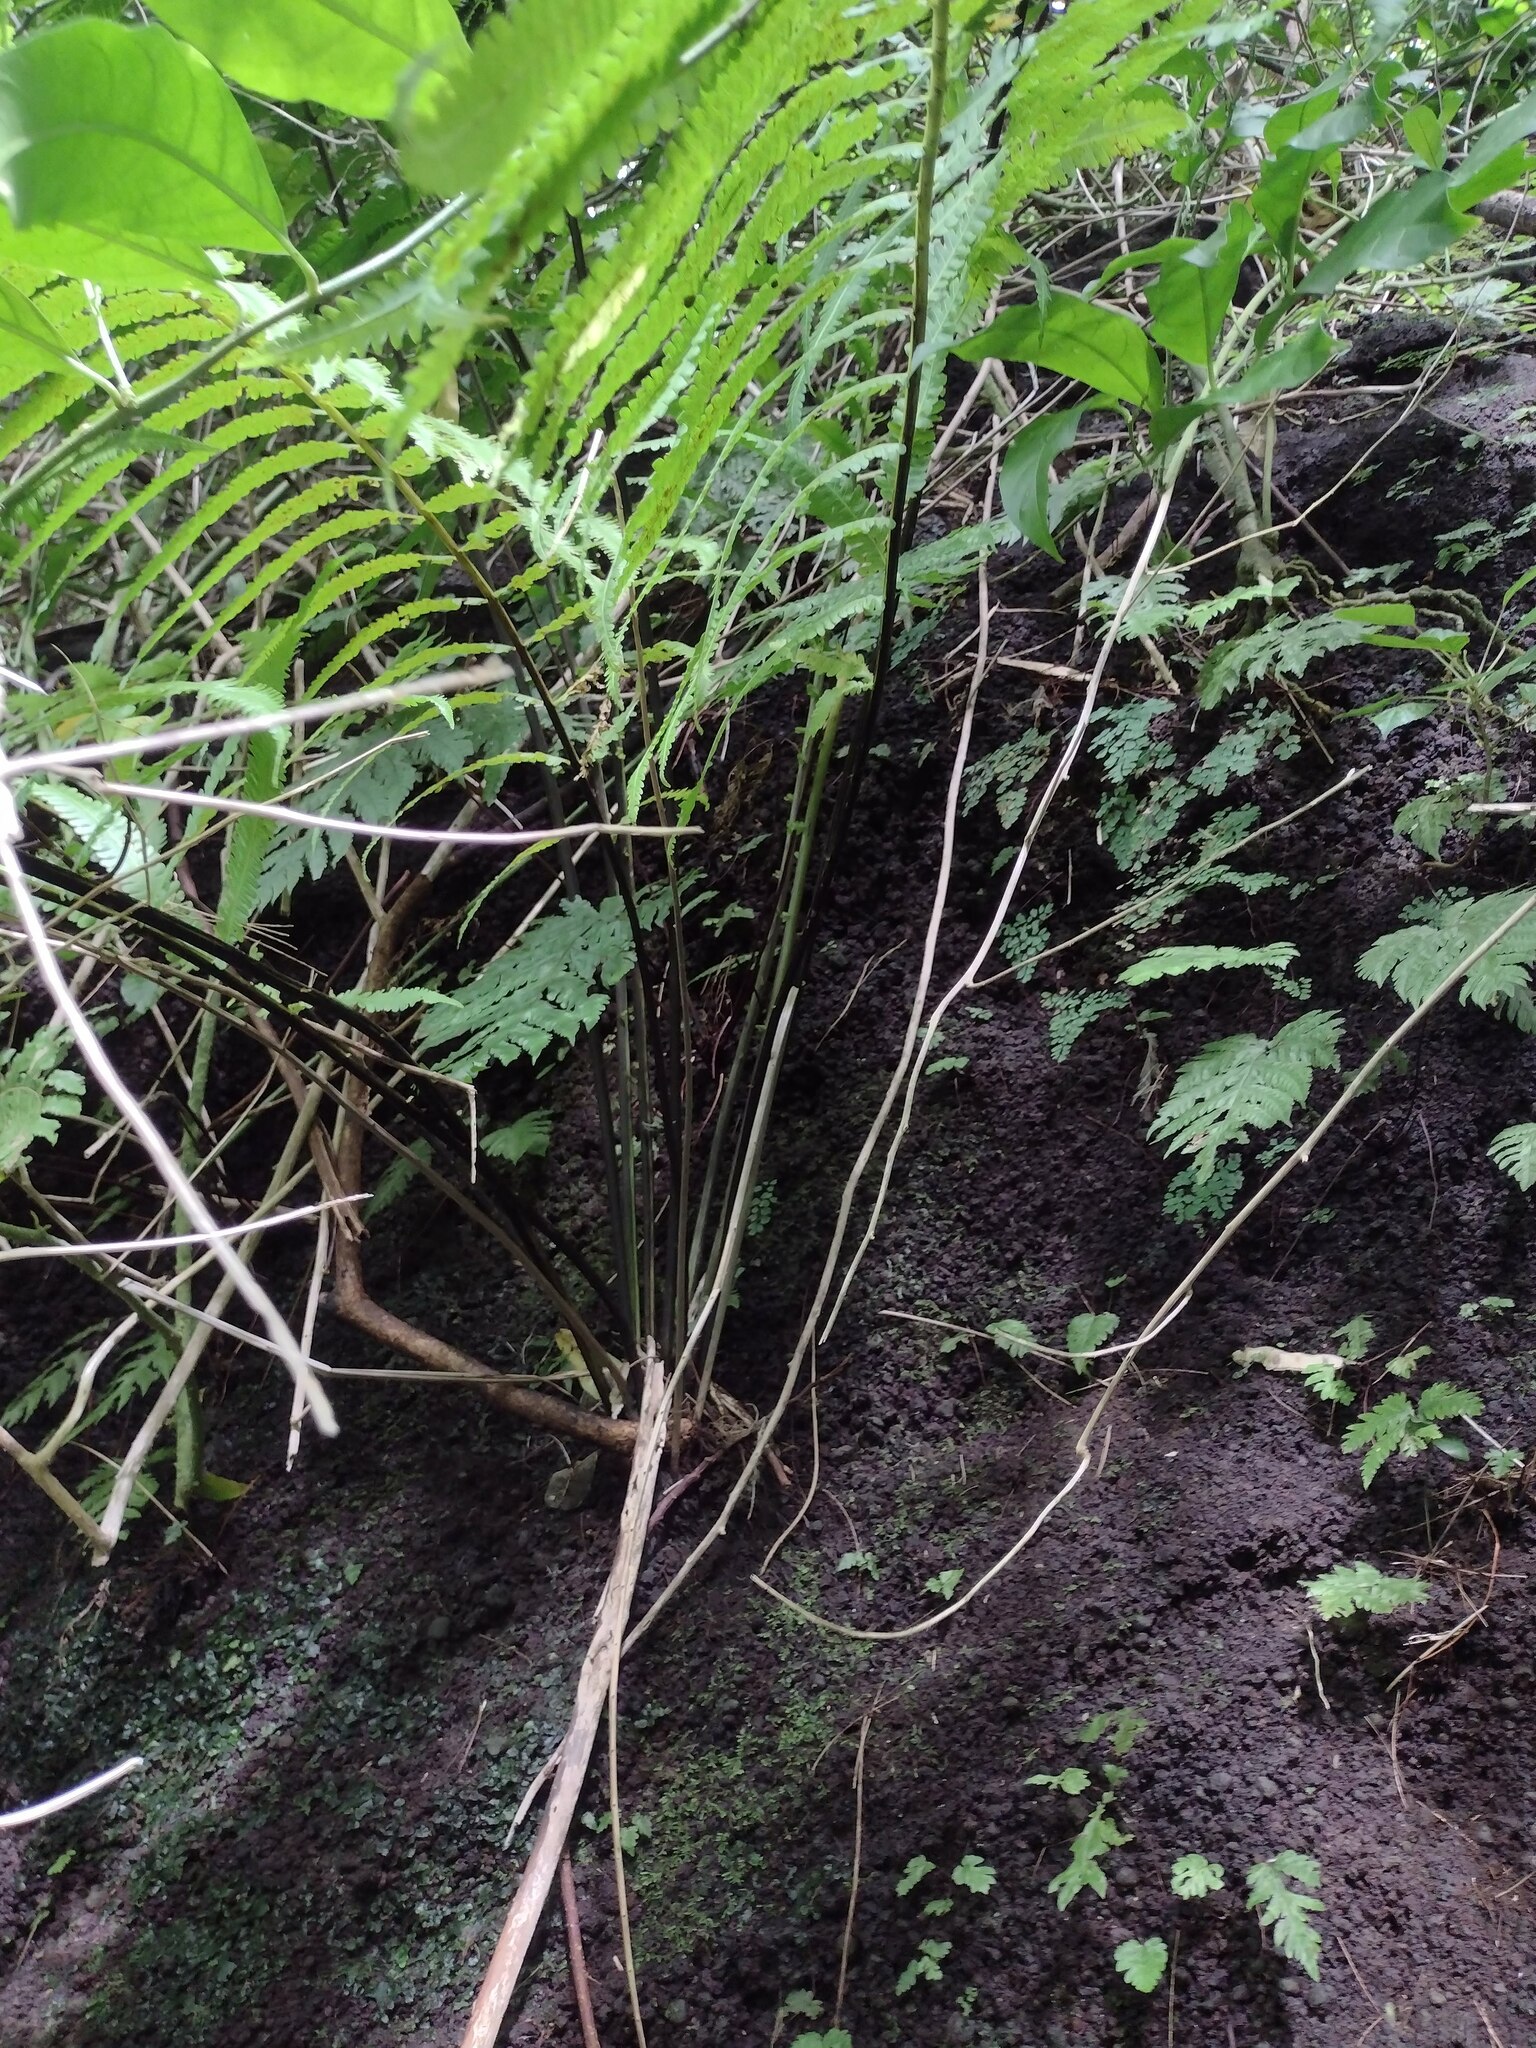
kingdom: Plantae
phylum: Tracheophyta
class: Polypodiopsida
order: Polypodiales
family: Thelypteridaceae
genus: Reholttumia
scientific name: Reholttumia hudsoniana
